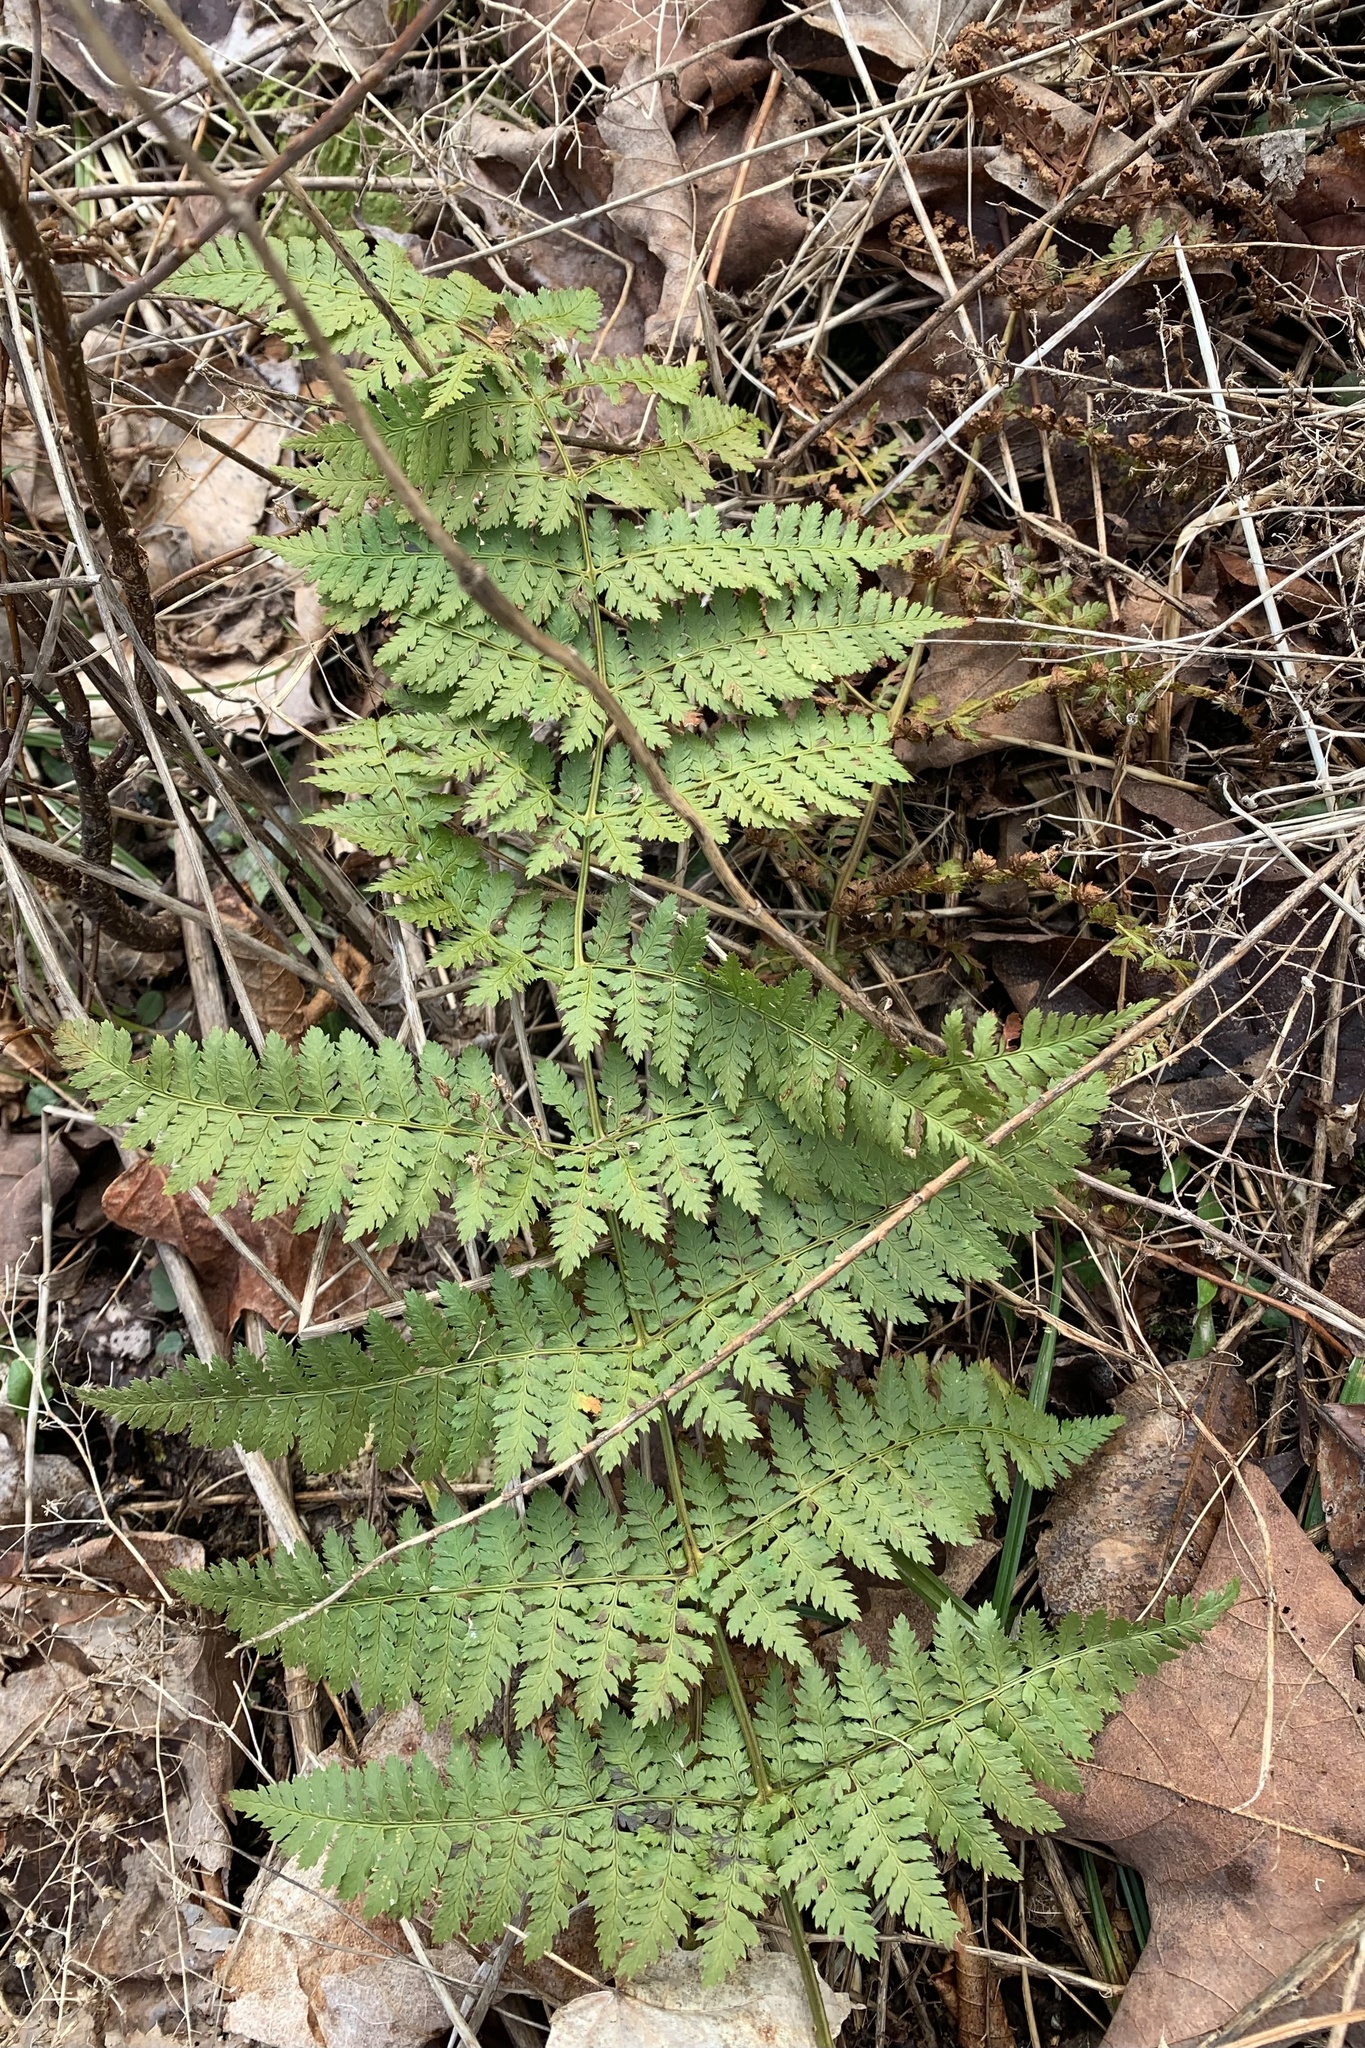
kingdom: Plantae
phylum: Tracheophyta
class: Polypodiopsida
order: Polypodiales
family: Dryopteridaceae
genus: Dryopteris
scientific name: Dryopteris intermedia
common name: Evergreen wood fern
